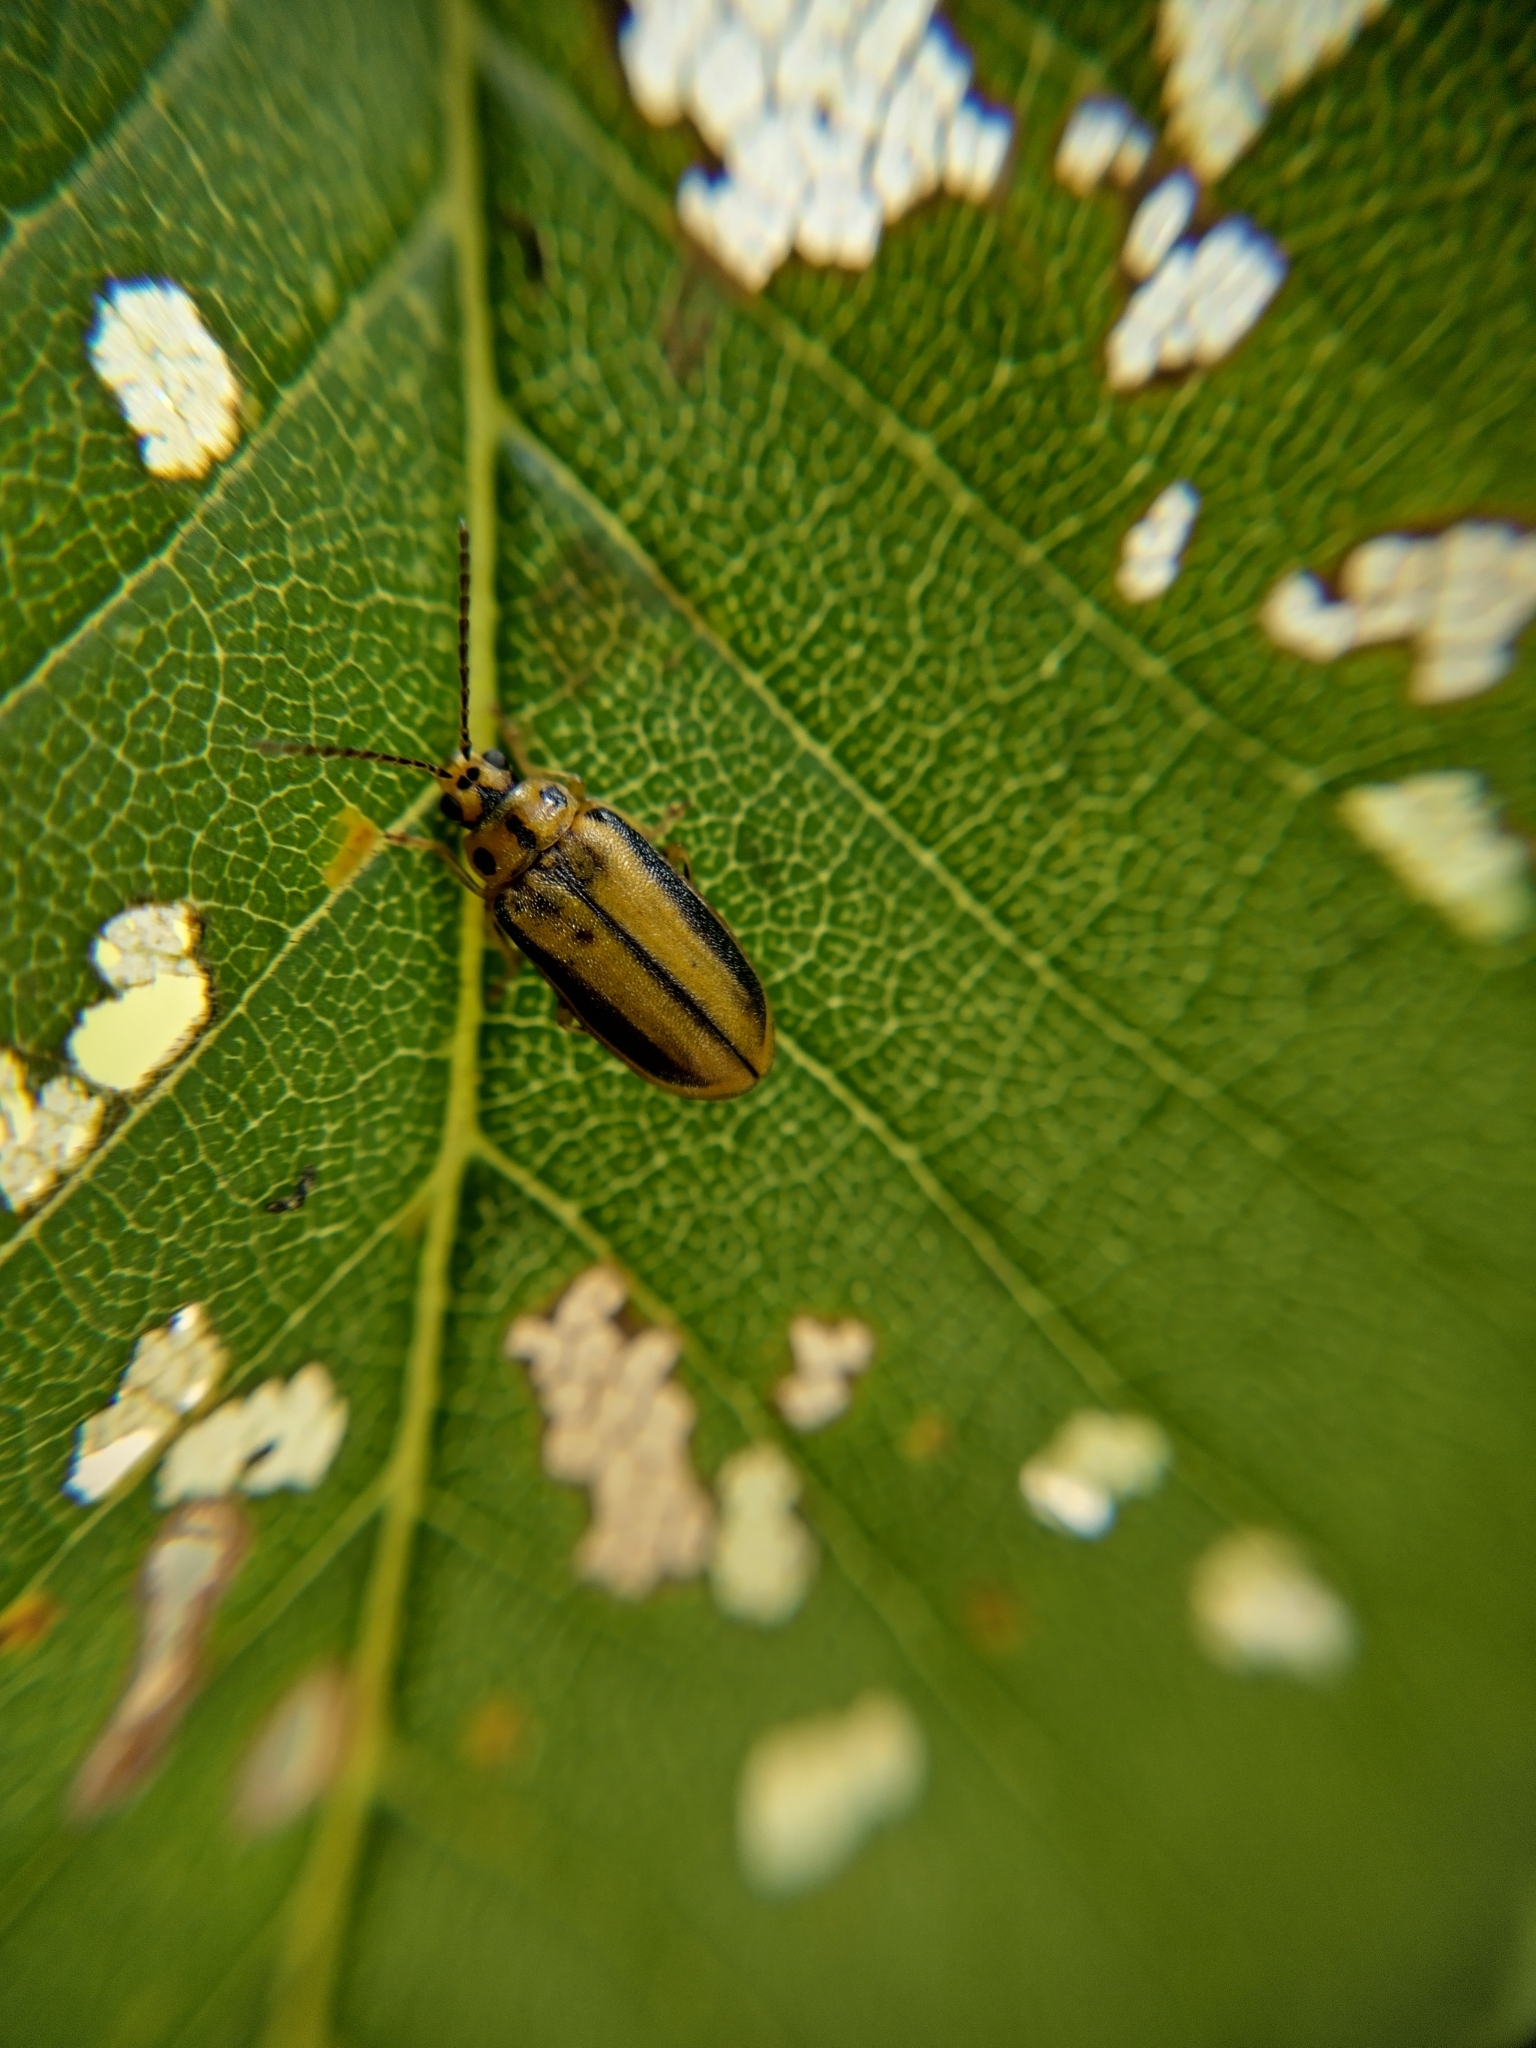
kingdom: Animalia
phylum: Arthropoda
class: Insecta
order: Coleoptera
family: Chrysomelidae
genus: Xanthogaleruca
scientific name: Xanthogaleruca luteola
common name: Elm leaf beetle
